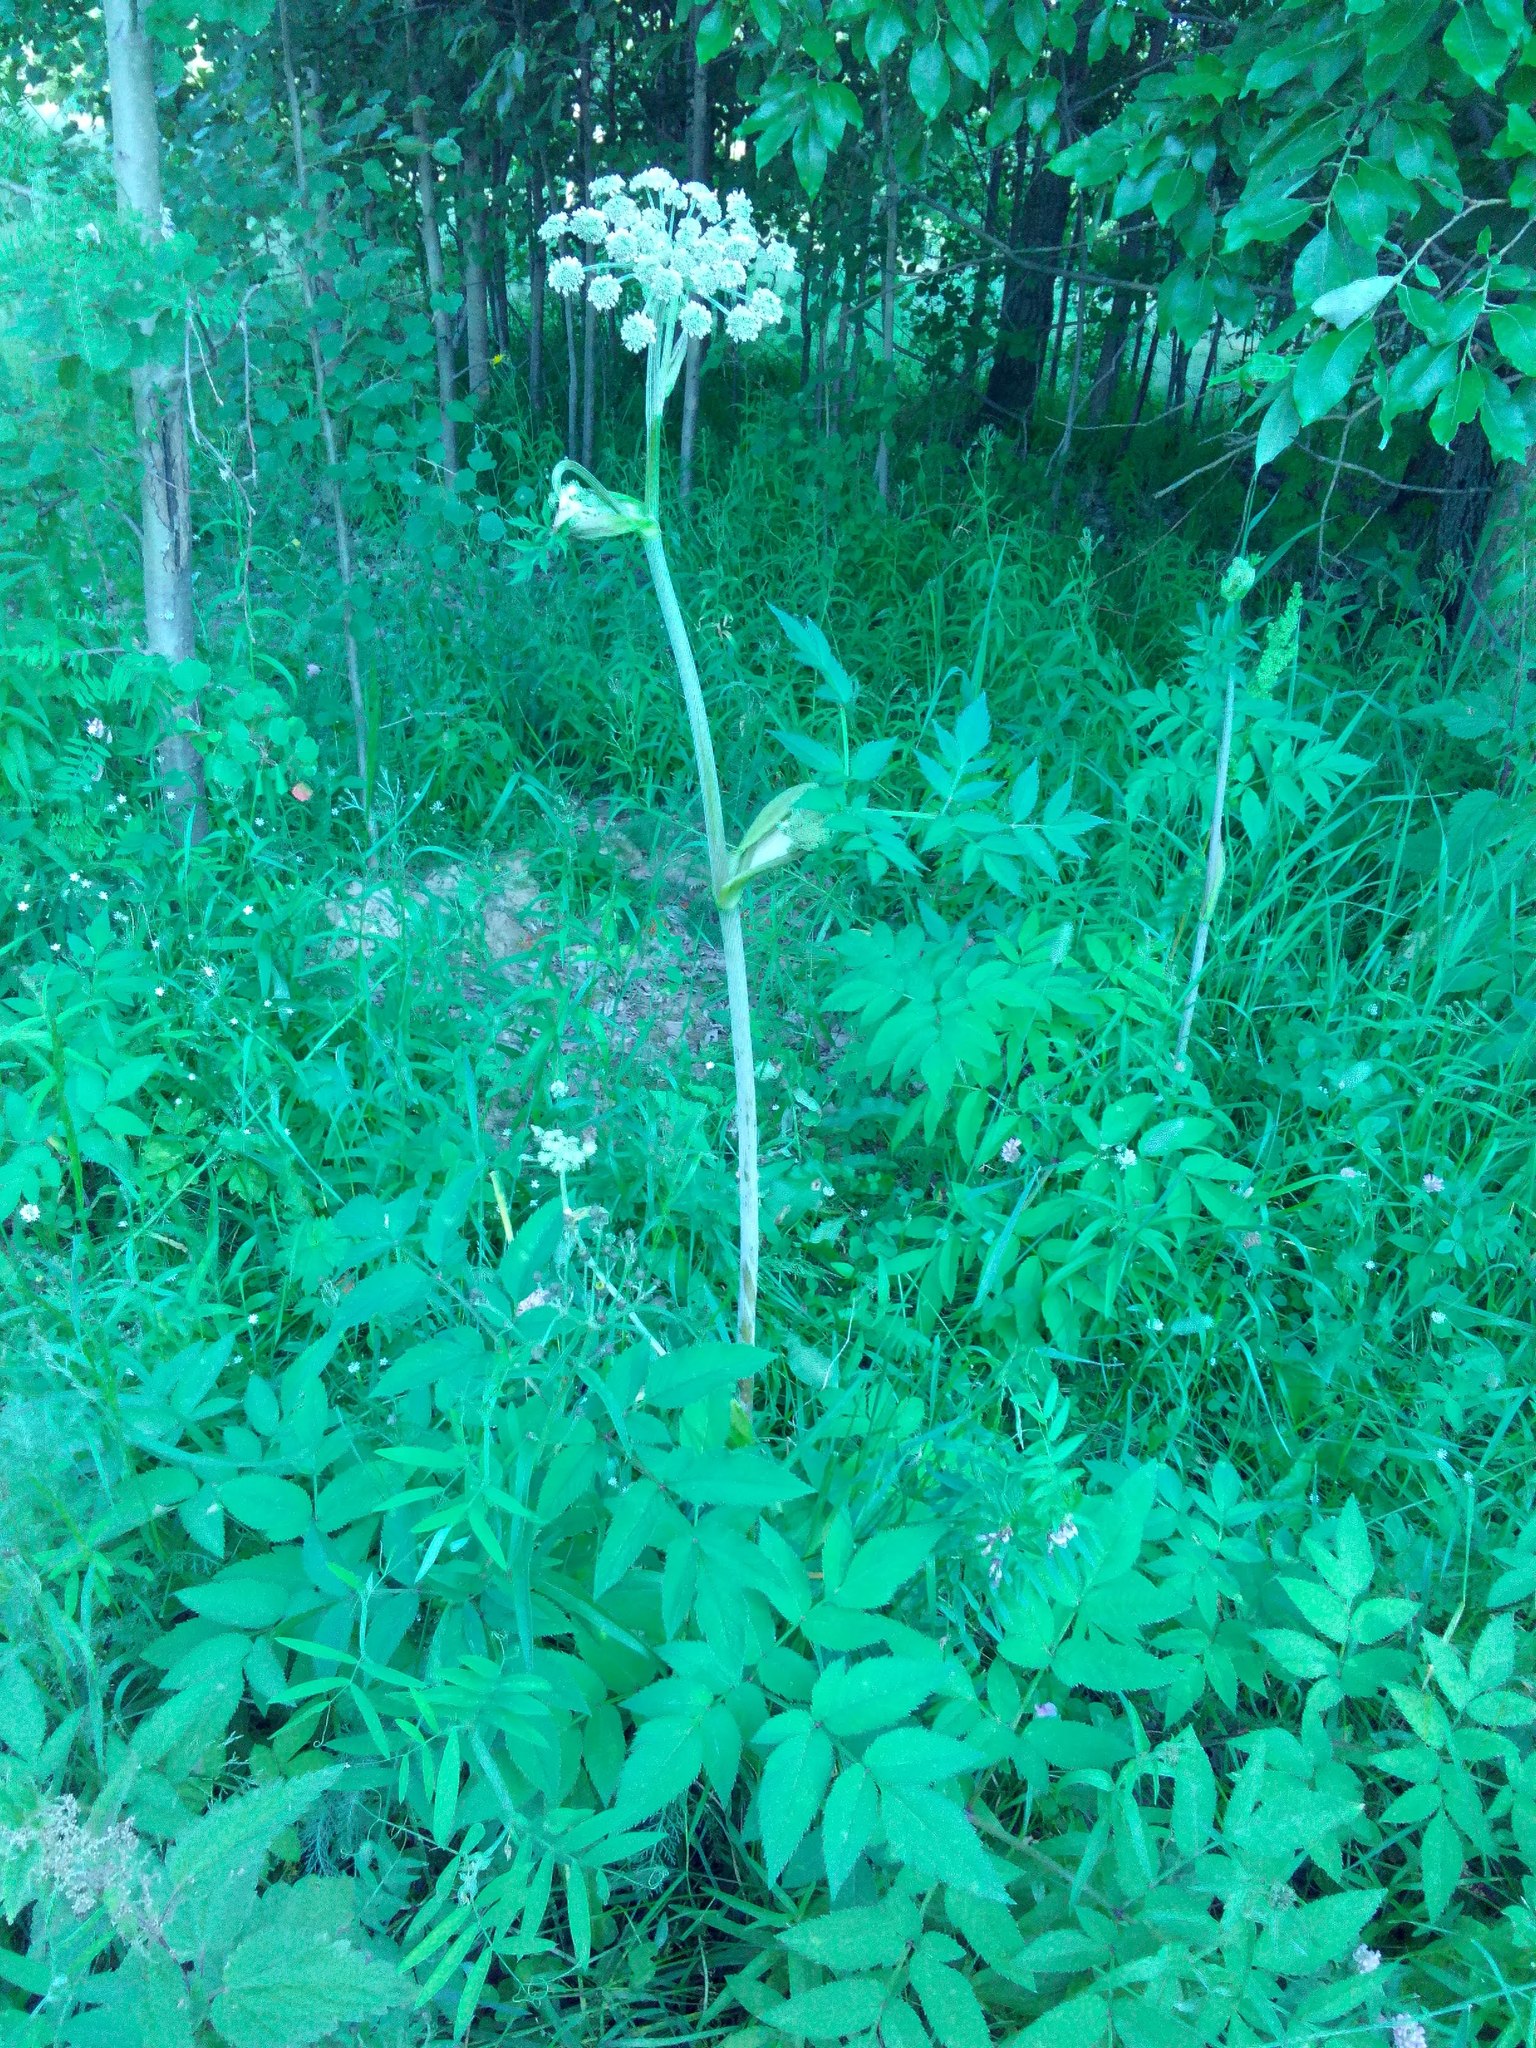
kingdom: Plantae
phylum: Tracheophyta
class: Magnoliopsida
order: Apiales
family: Apiaceae
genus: Angelica
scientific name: Angelica sylvestris
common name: Wild angelica
